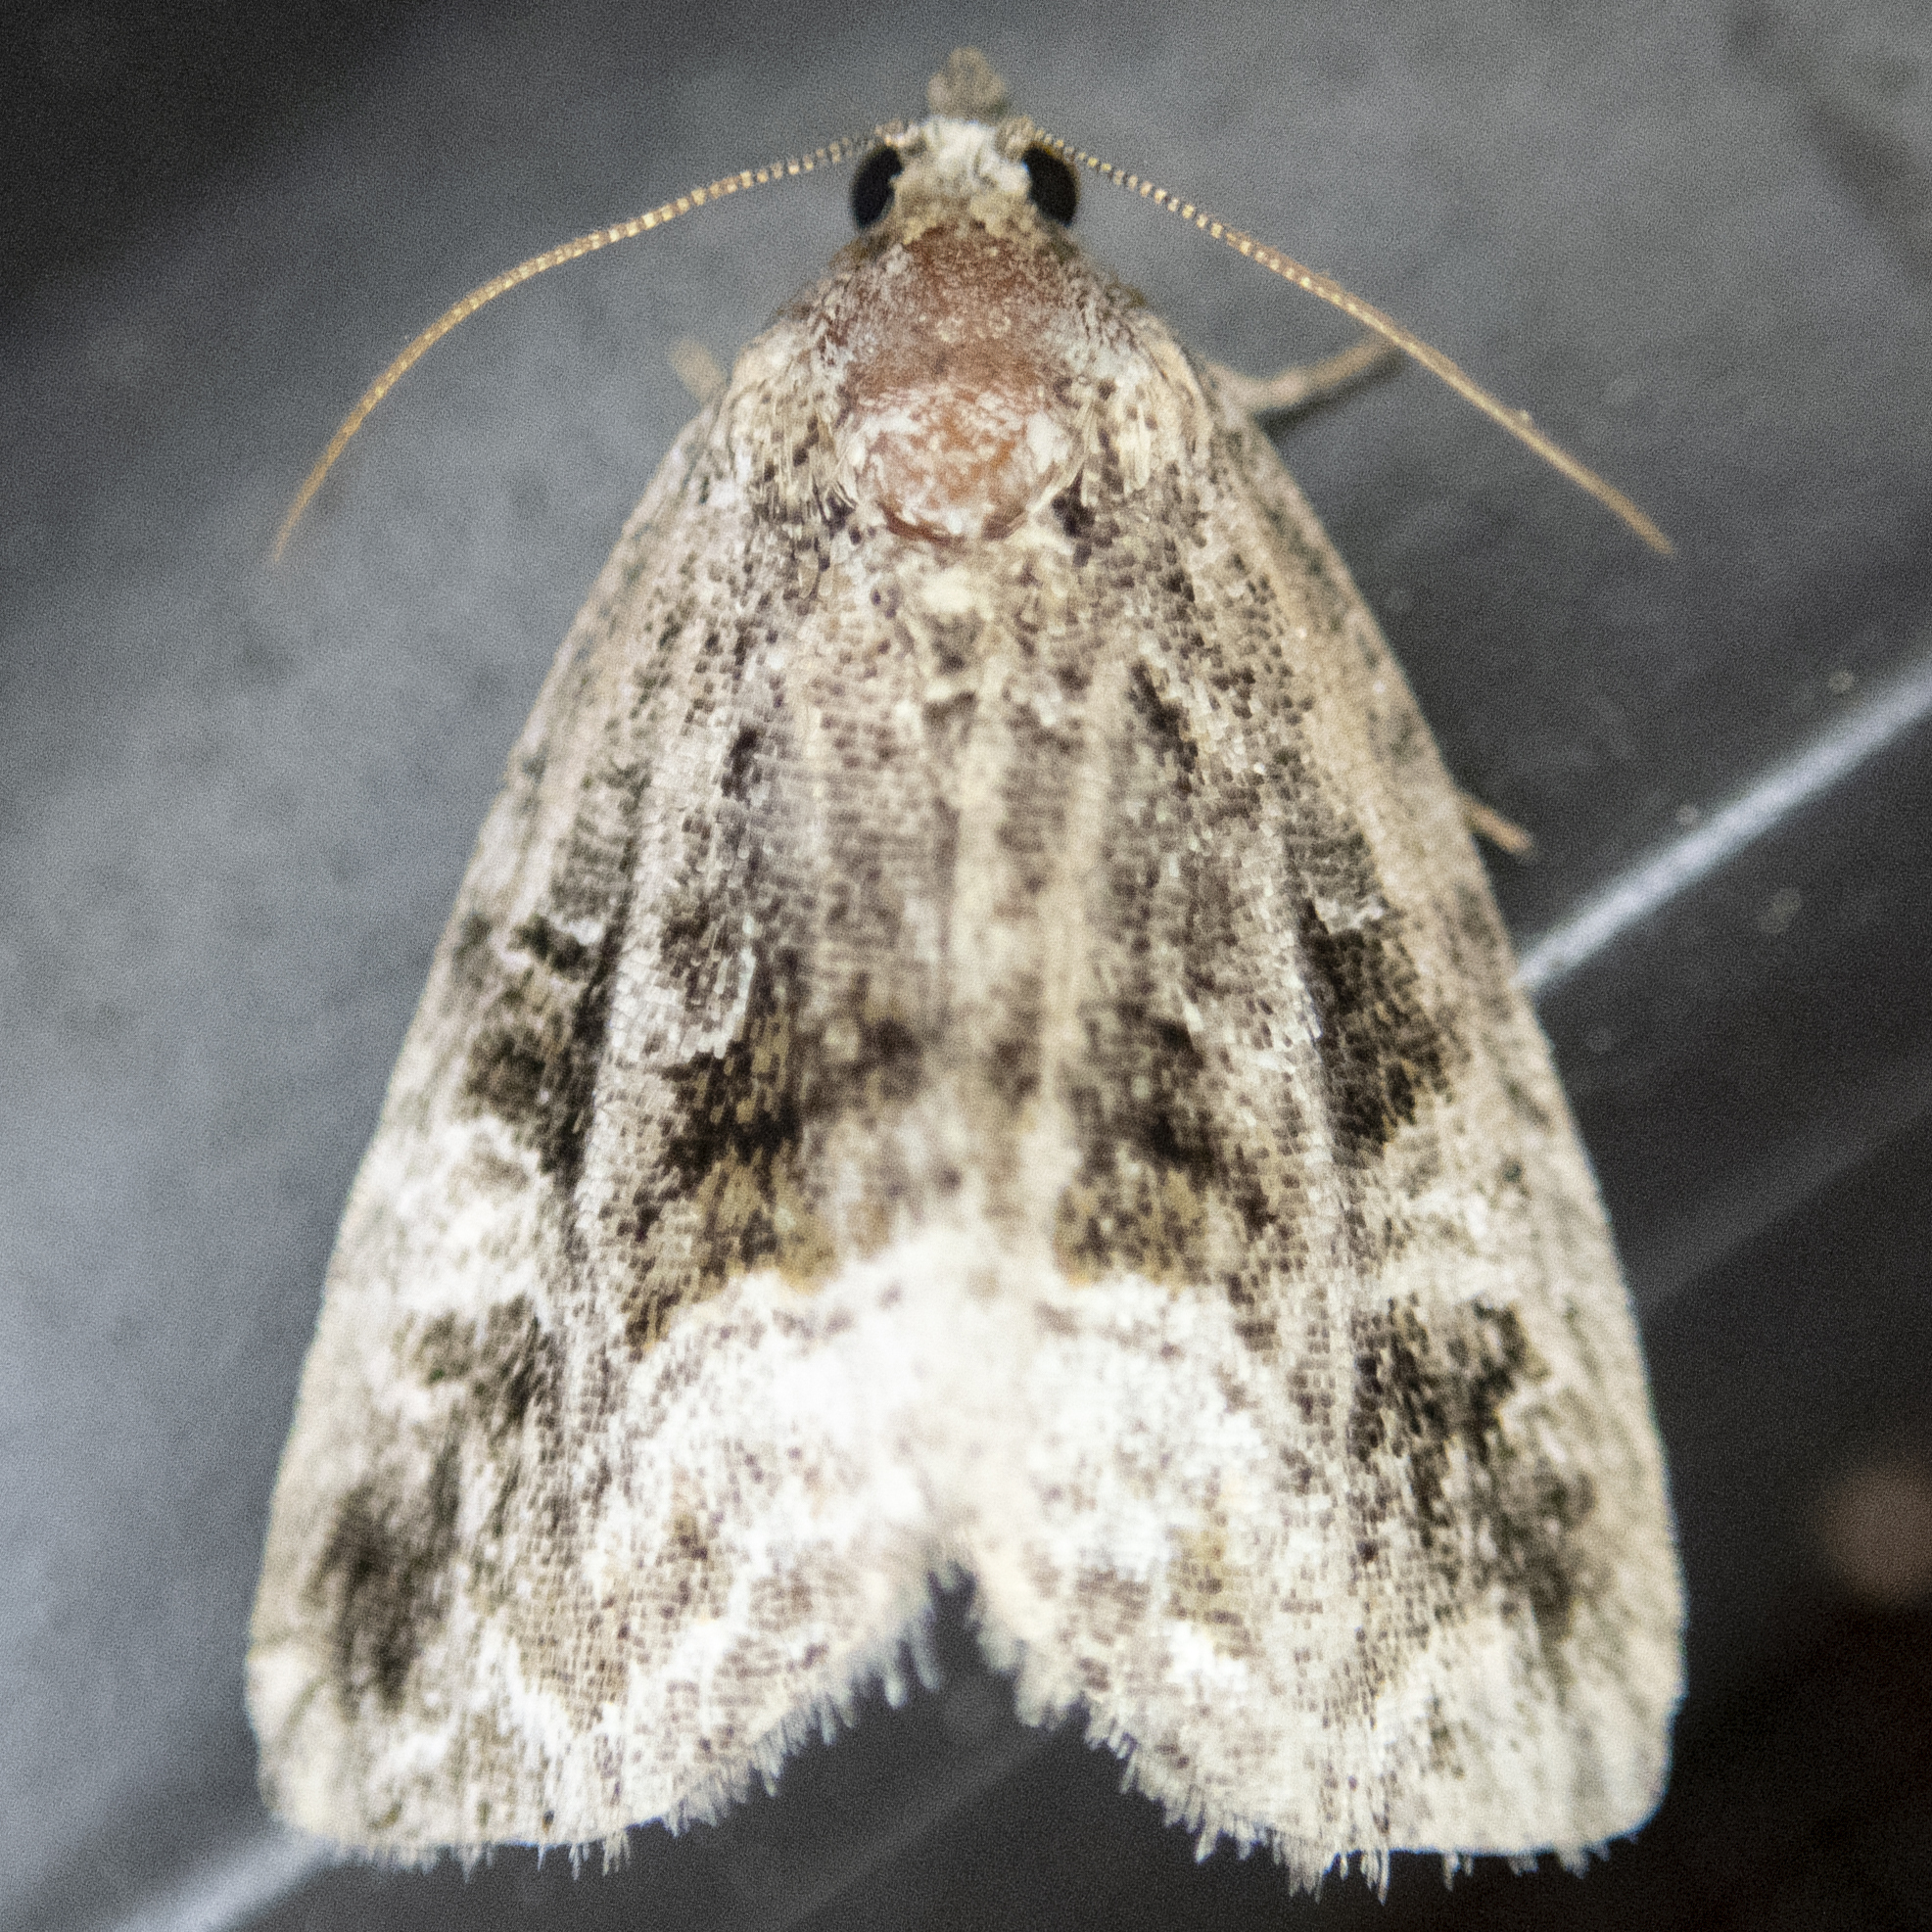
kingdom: Animalia
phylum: Arthropoda
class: Insecta
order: Lepidoptera
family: Noctuidae
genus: Protodeltote
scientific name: Protodeltote muscosula
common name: Large mossy glyph
